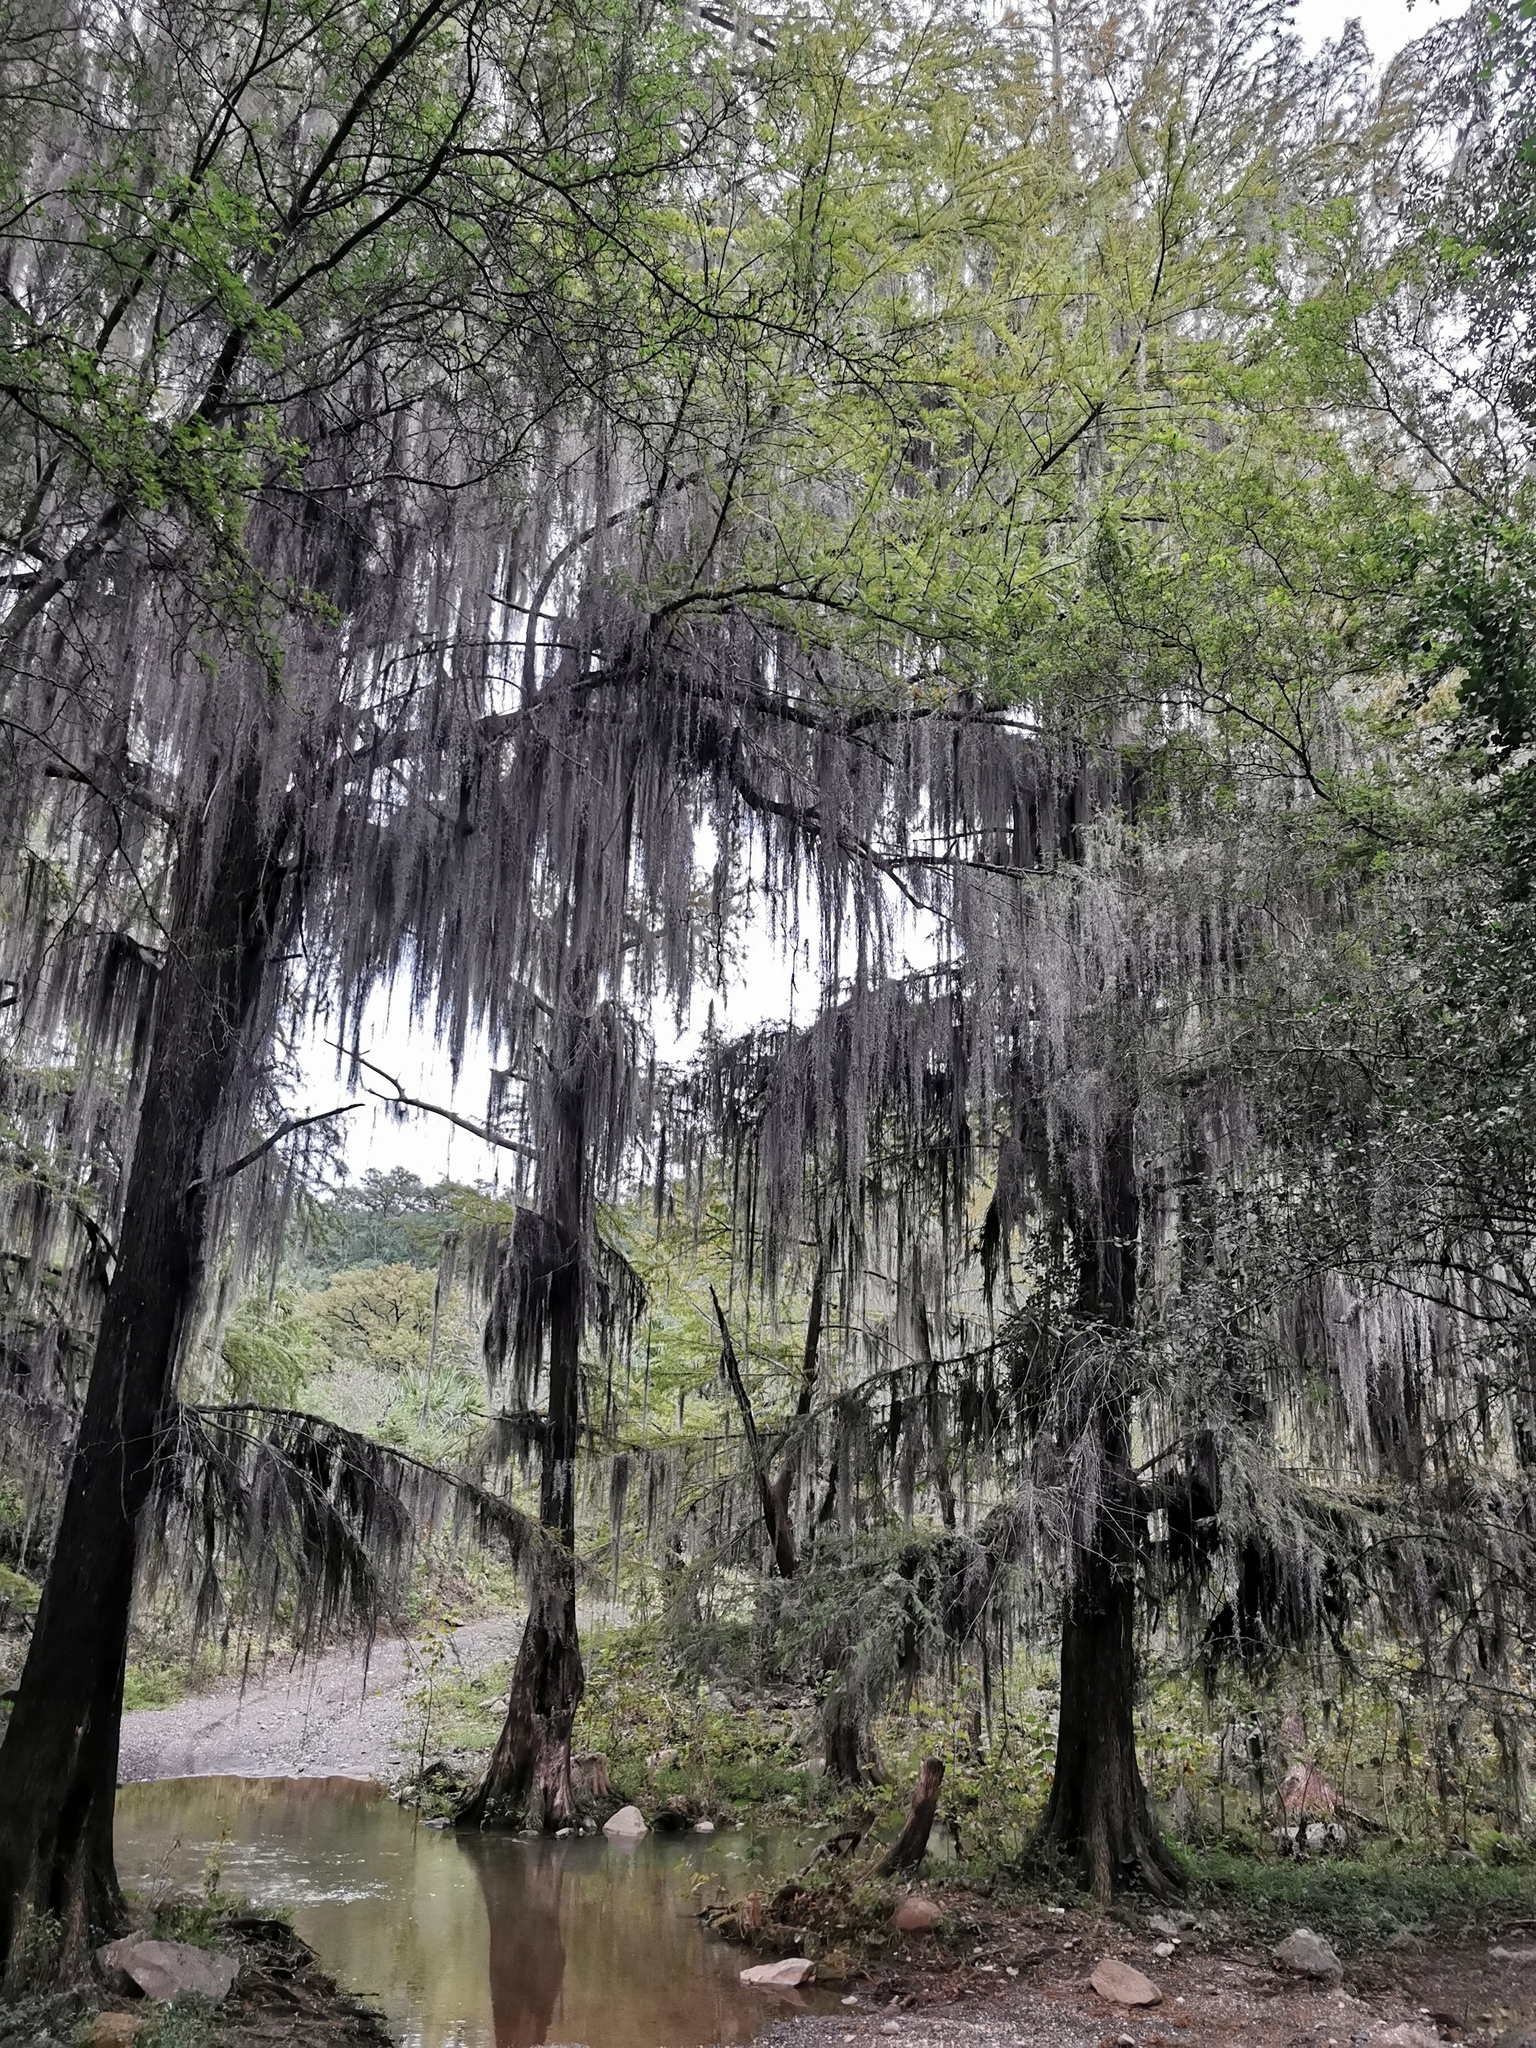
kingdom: Plantae
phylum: Tracheophyta
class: Liliopsida
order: Poales
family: Bromeliaceae
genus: Tillandsia
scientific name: Tillandsia usneoides
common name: Spanish moss
